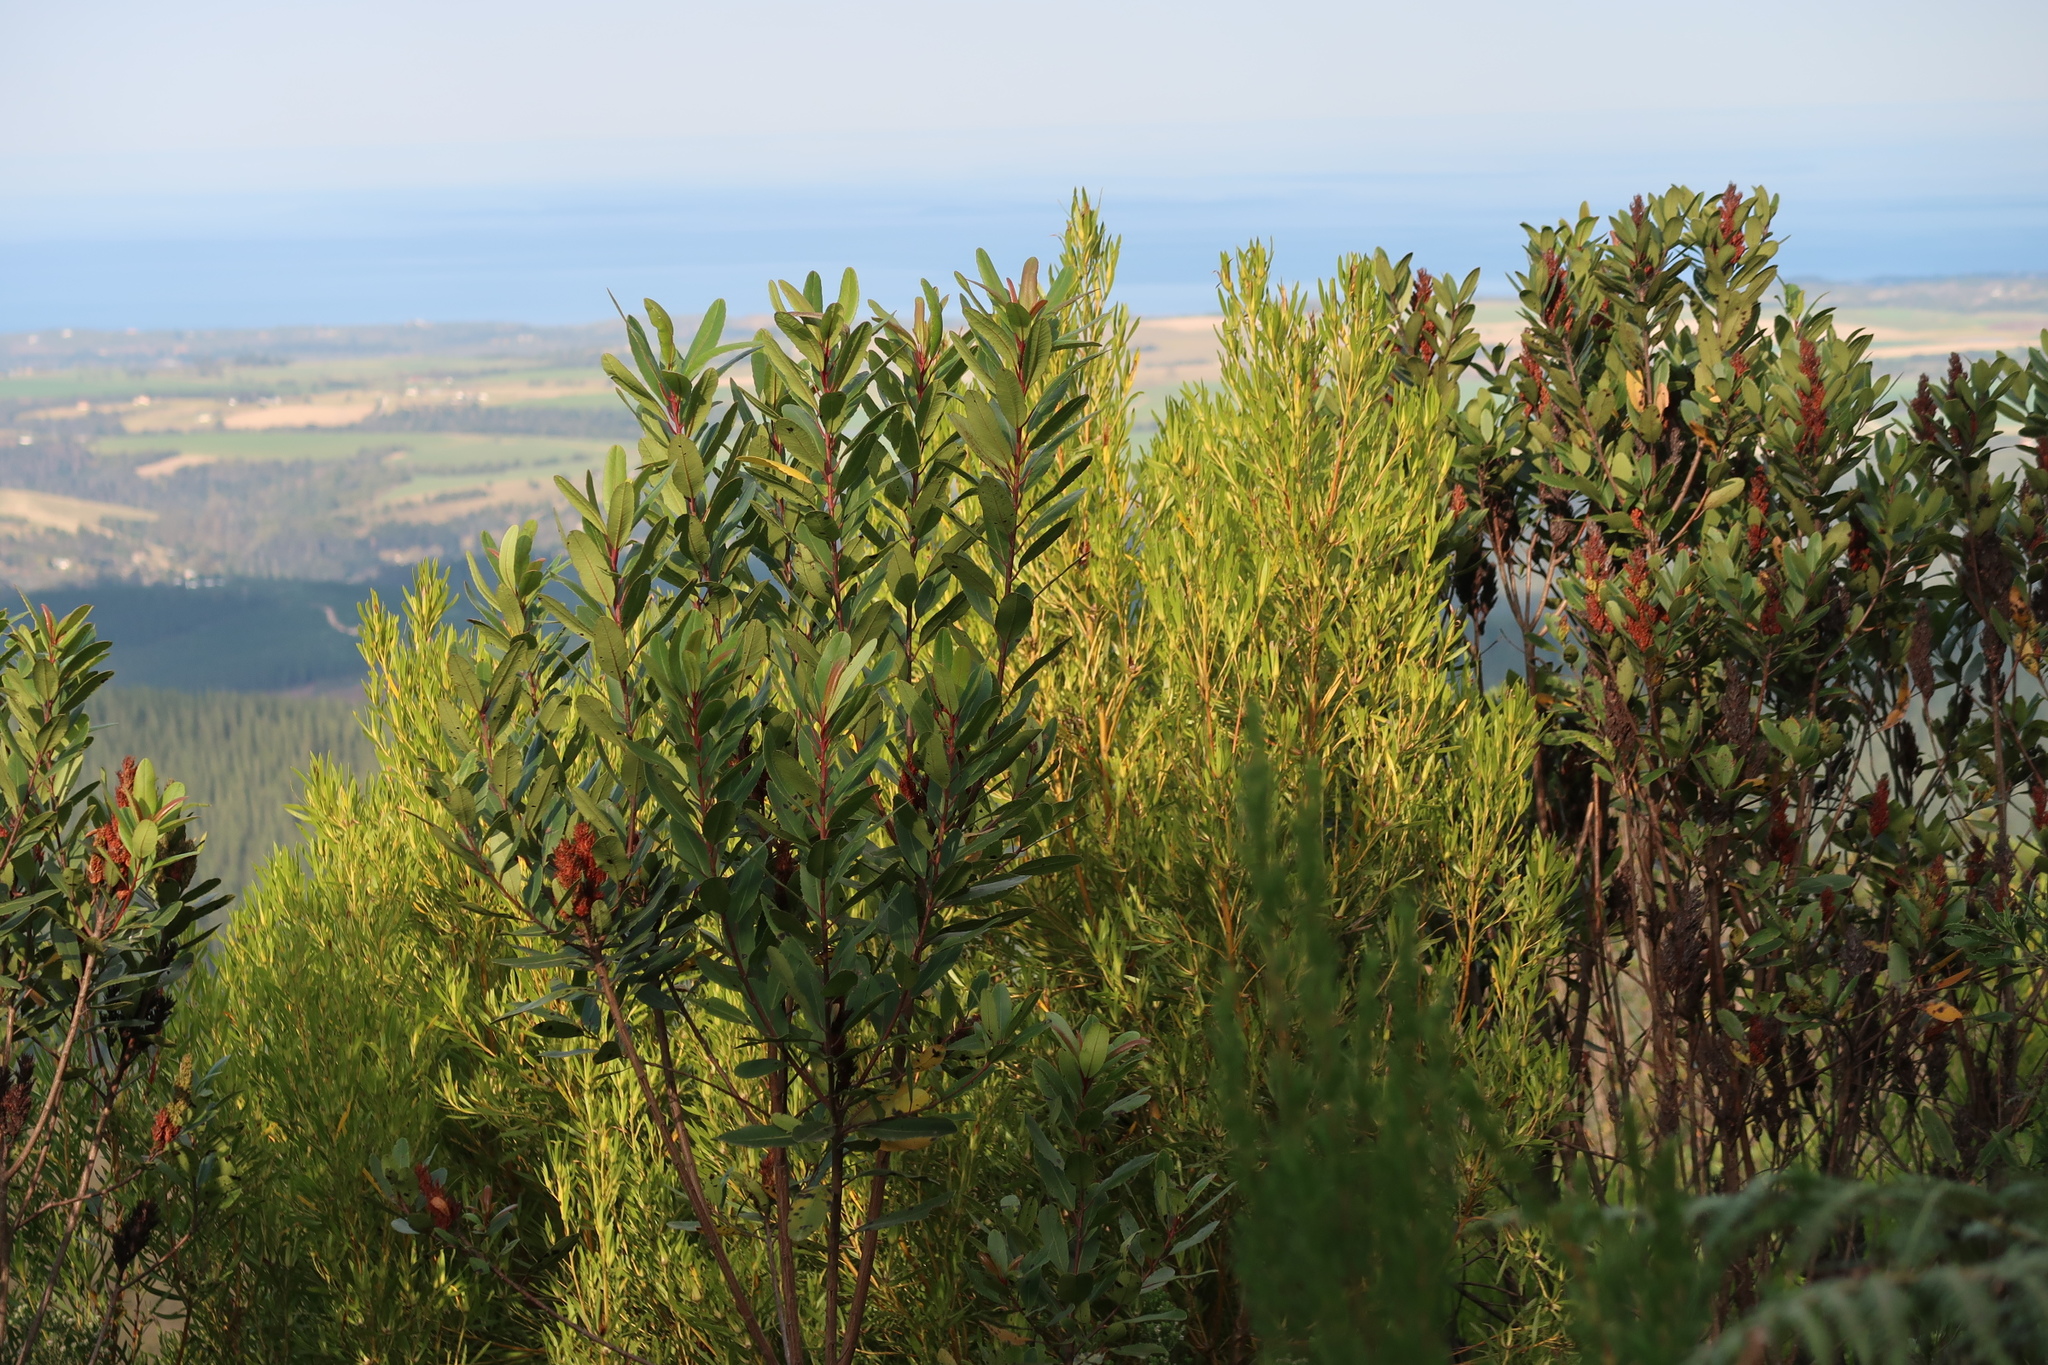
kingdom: Plantae
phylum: Tracheophyta
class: Magnoliopsida
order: Sapindales
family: Anacardiaceae
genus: Laurophyllus
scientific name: Laurophyllus capensis
